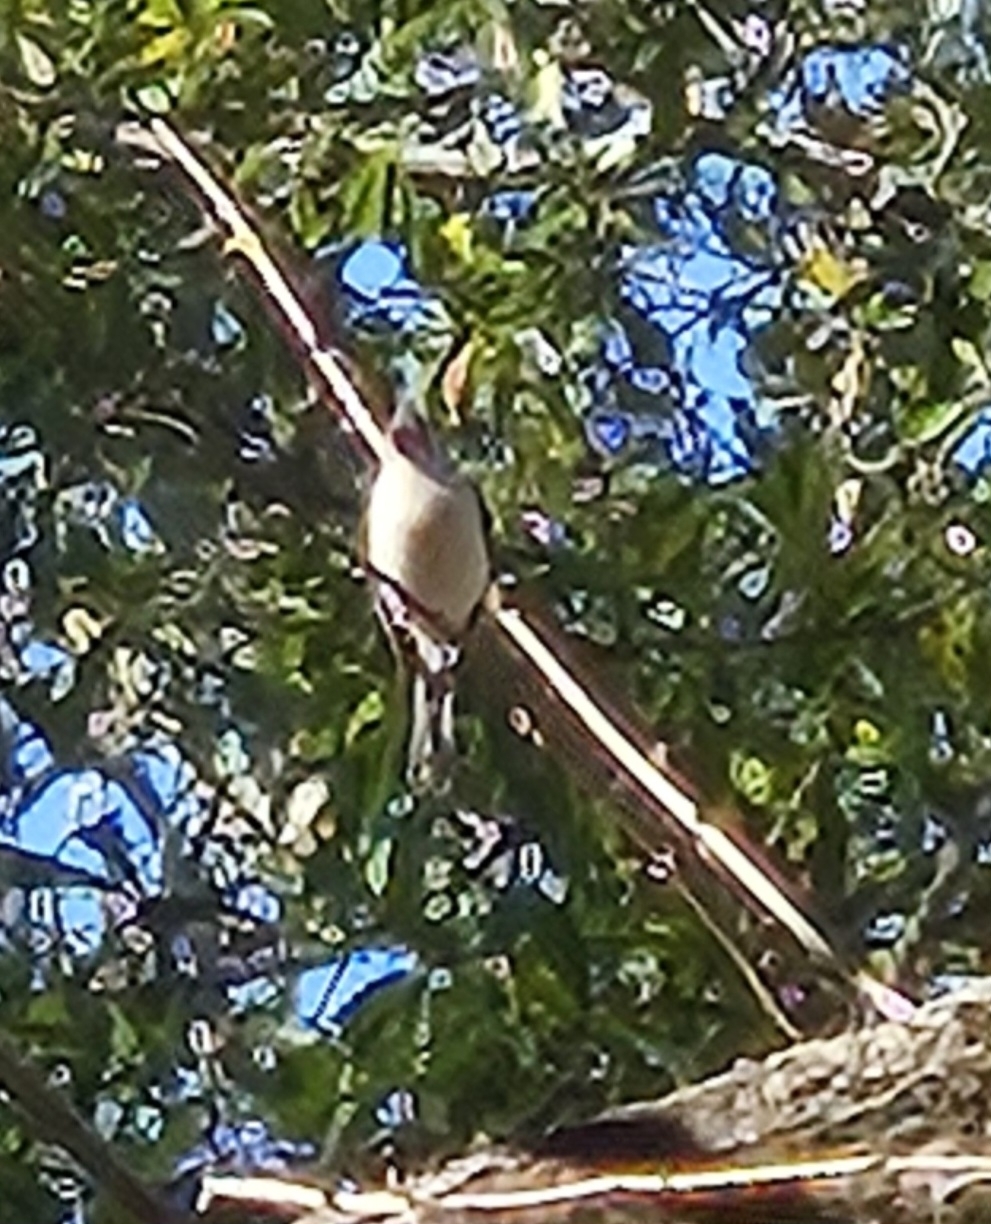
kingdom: Animalia
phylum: Chordata
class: Aves
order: Passeriformes
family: Paridae
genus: Baeolophus
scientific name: Baeolophus bicolor
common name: Tufted titmouse
